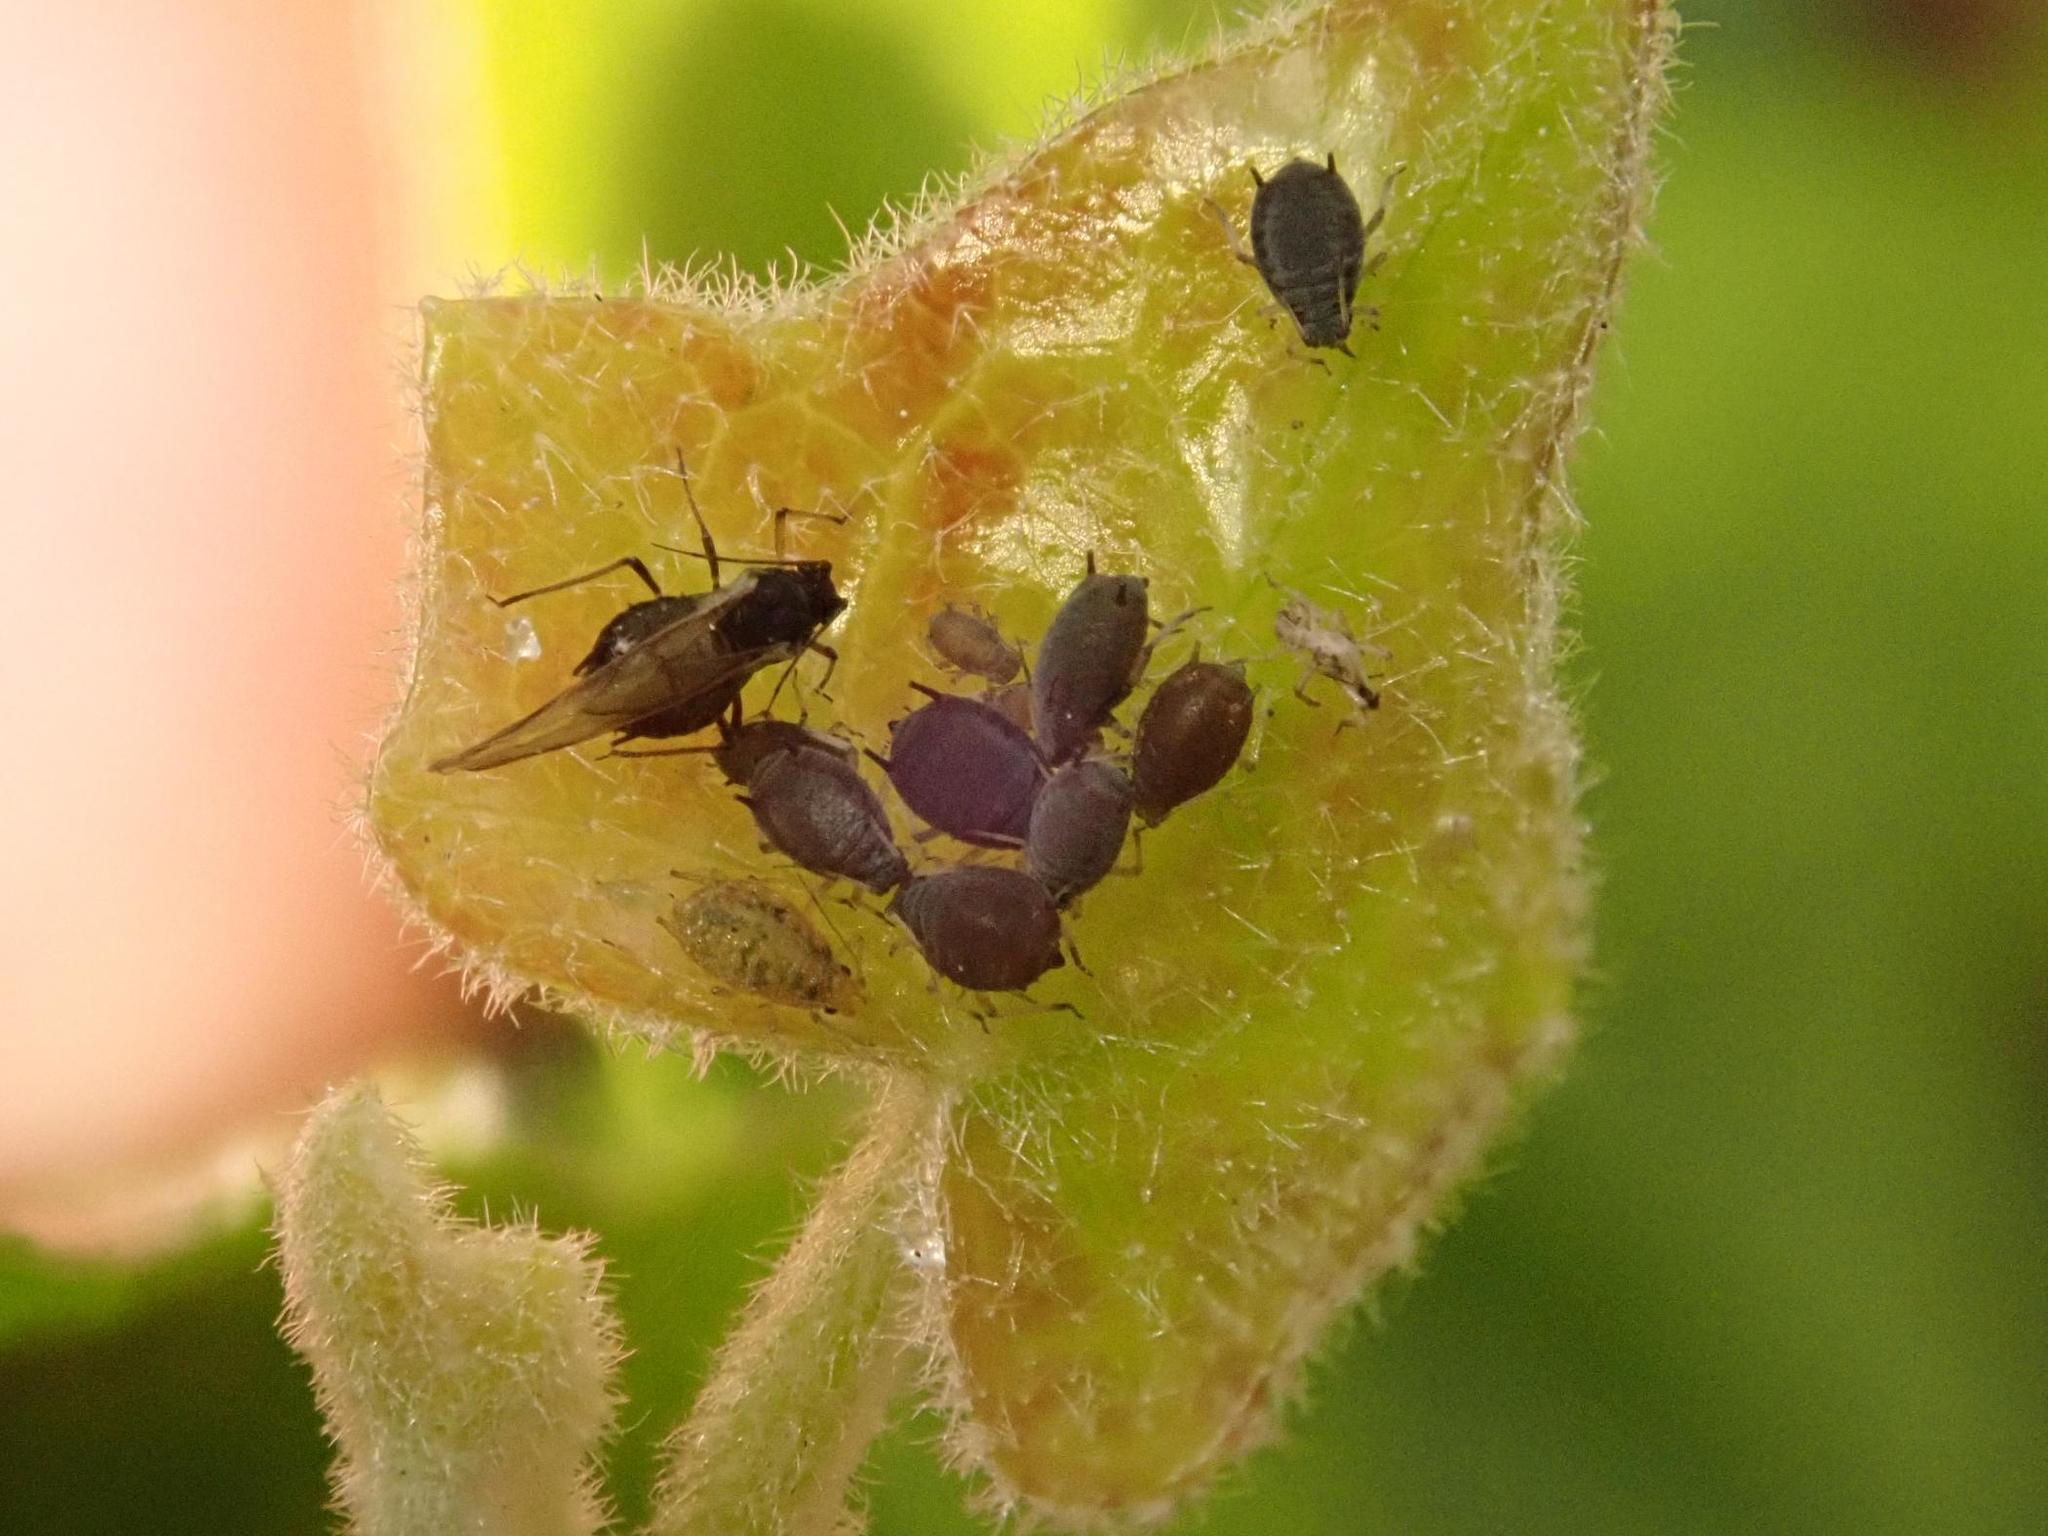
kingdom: Animalia
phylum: Arthropoda
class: Insecta
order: Hemiptera
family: Aphididae
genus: Aphis
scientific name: Aphis hederae
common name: Ivy aphid
